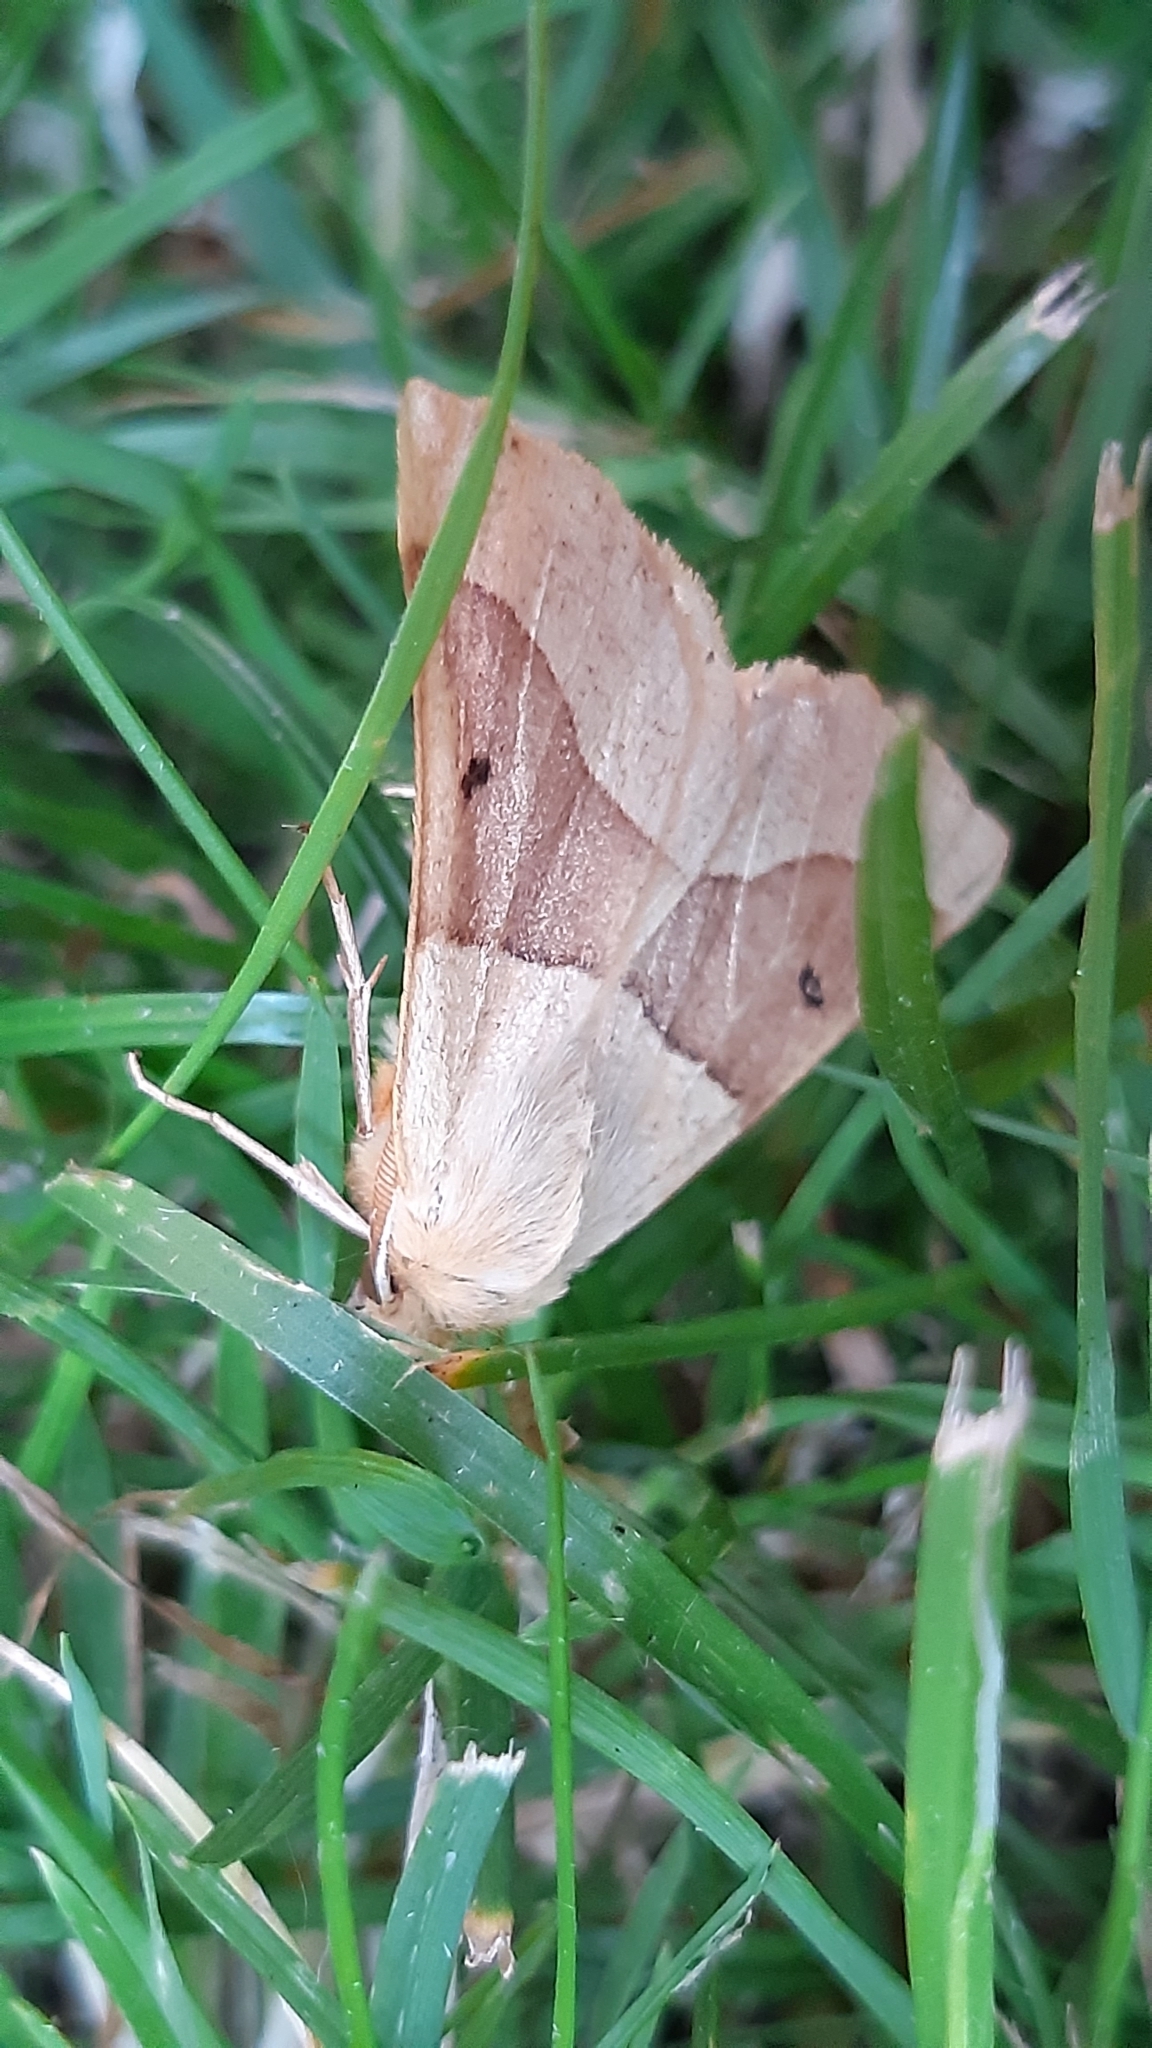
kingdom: Animalia
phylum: Arthropoda
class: Insecta
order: Lepidoptera
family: Geometridae
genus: Crocallis
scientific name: Crocallis elinguaria
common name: Scalloped oak
